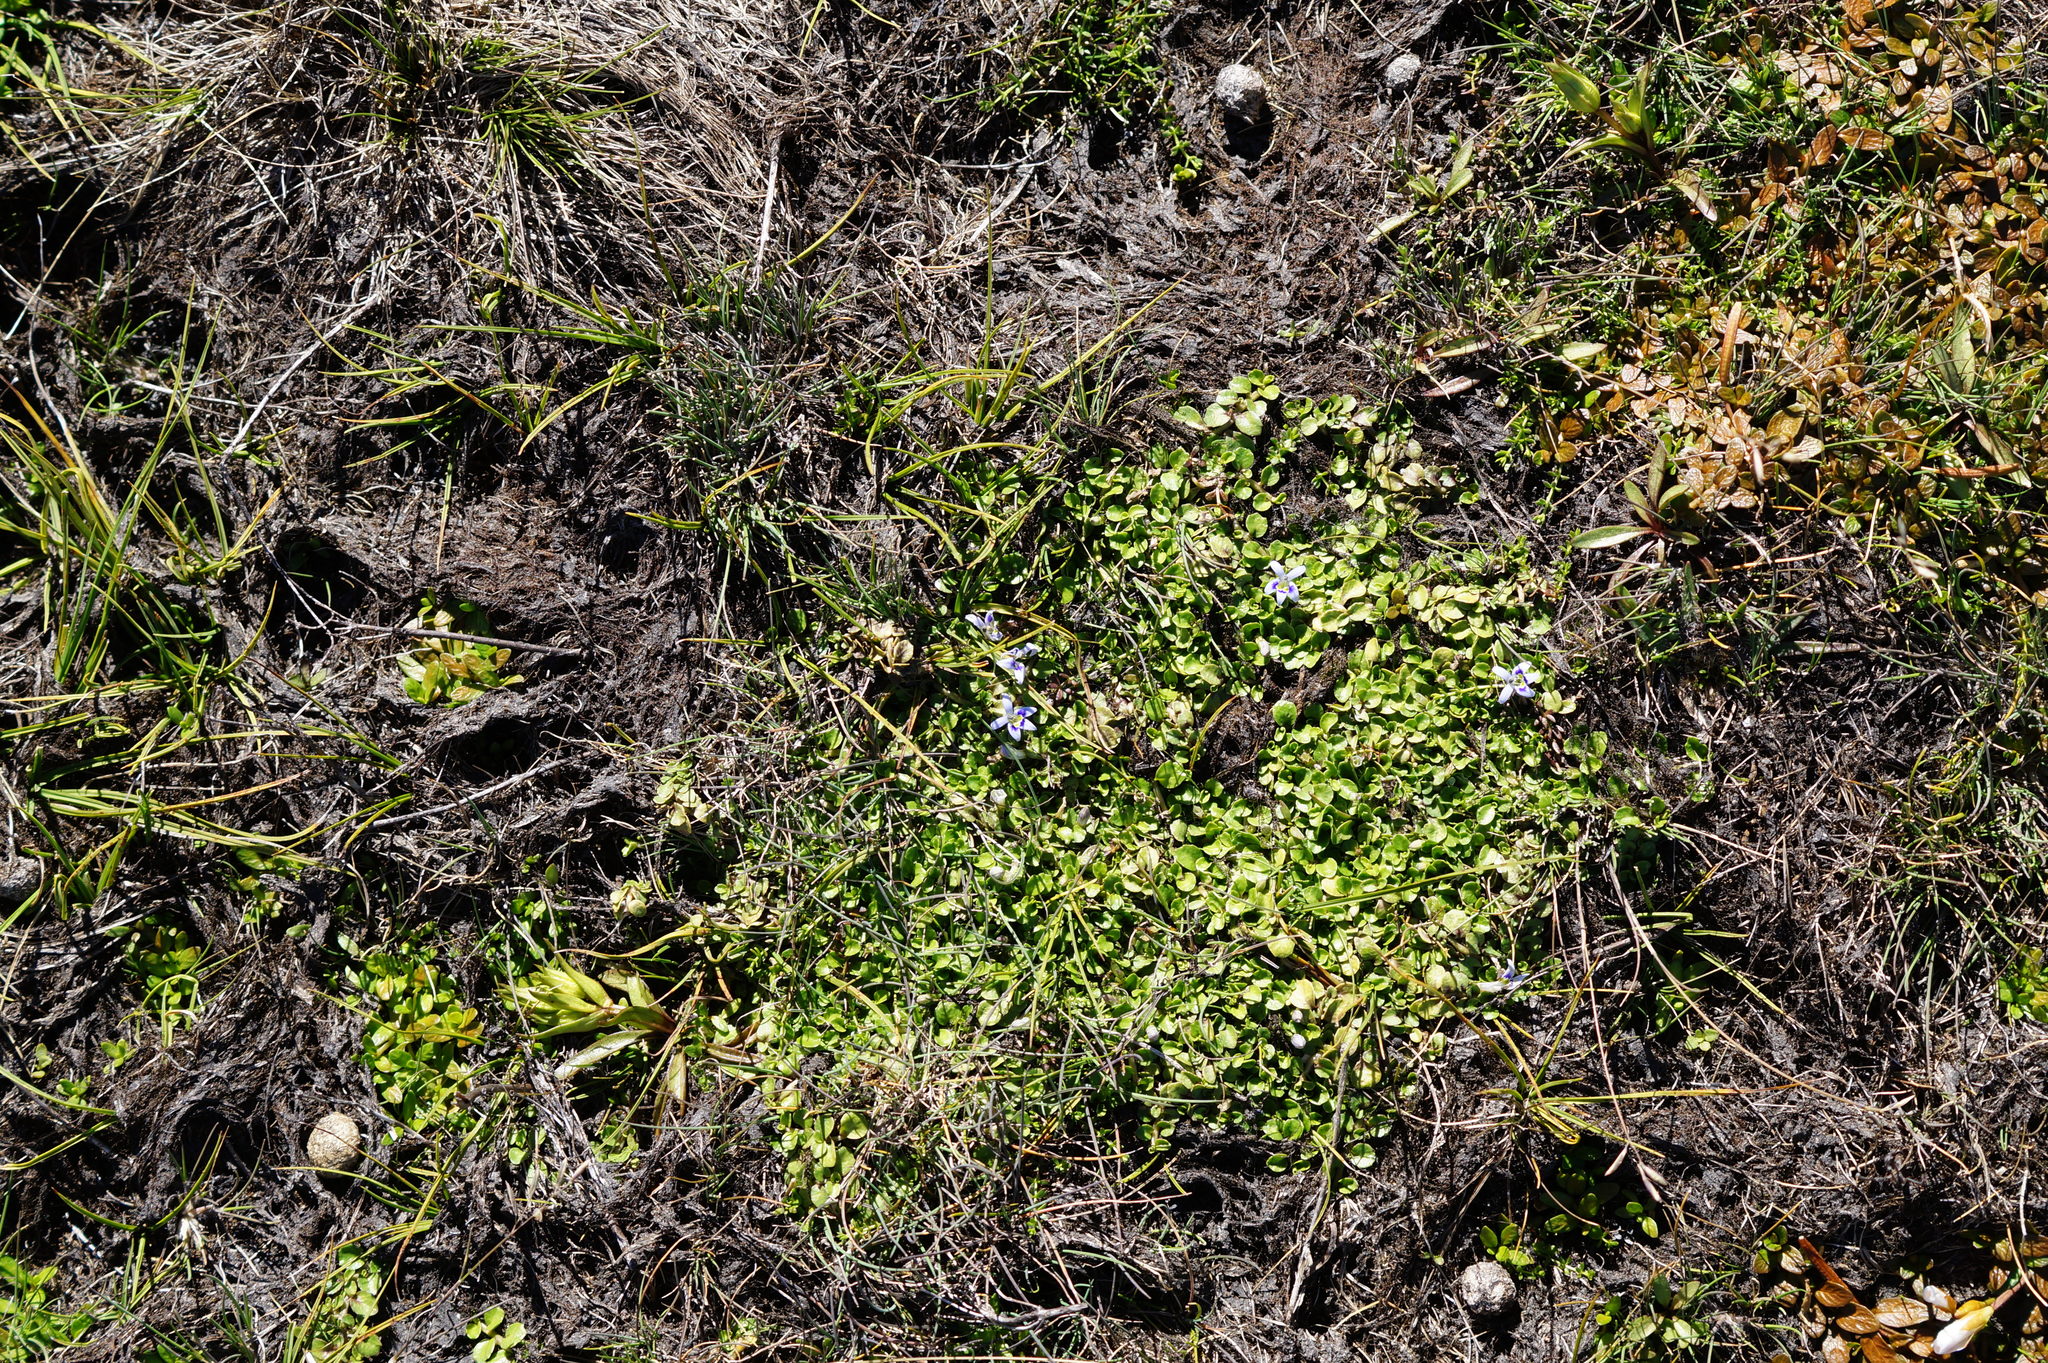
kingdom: Plantae
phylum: Tracheophyta
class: Magnoliopsida
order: Asterales
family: Campanulaceae
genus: Isotoma
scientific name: Isotoma rivalis
